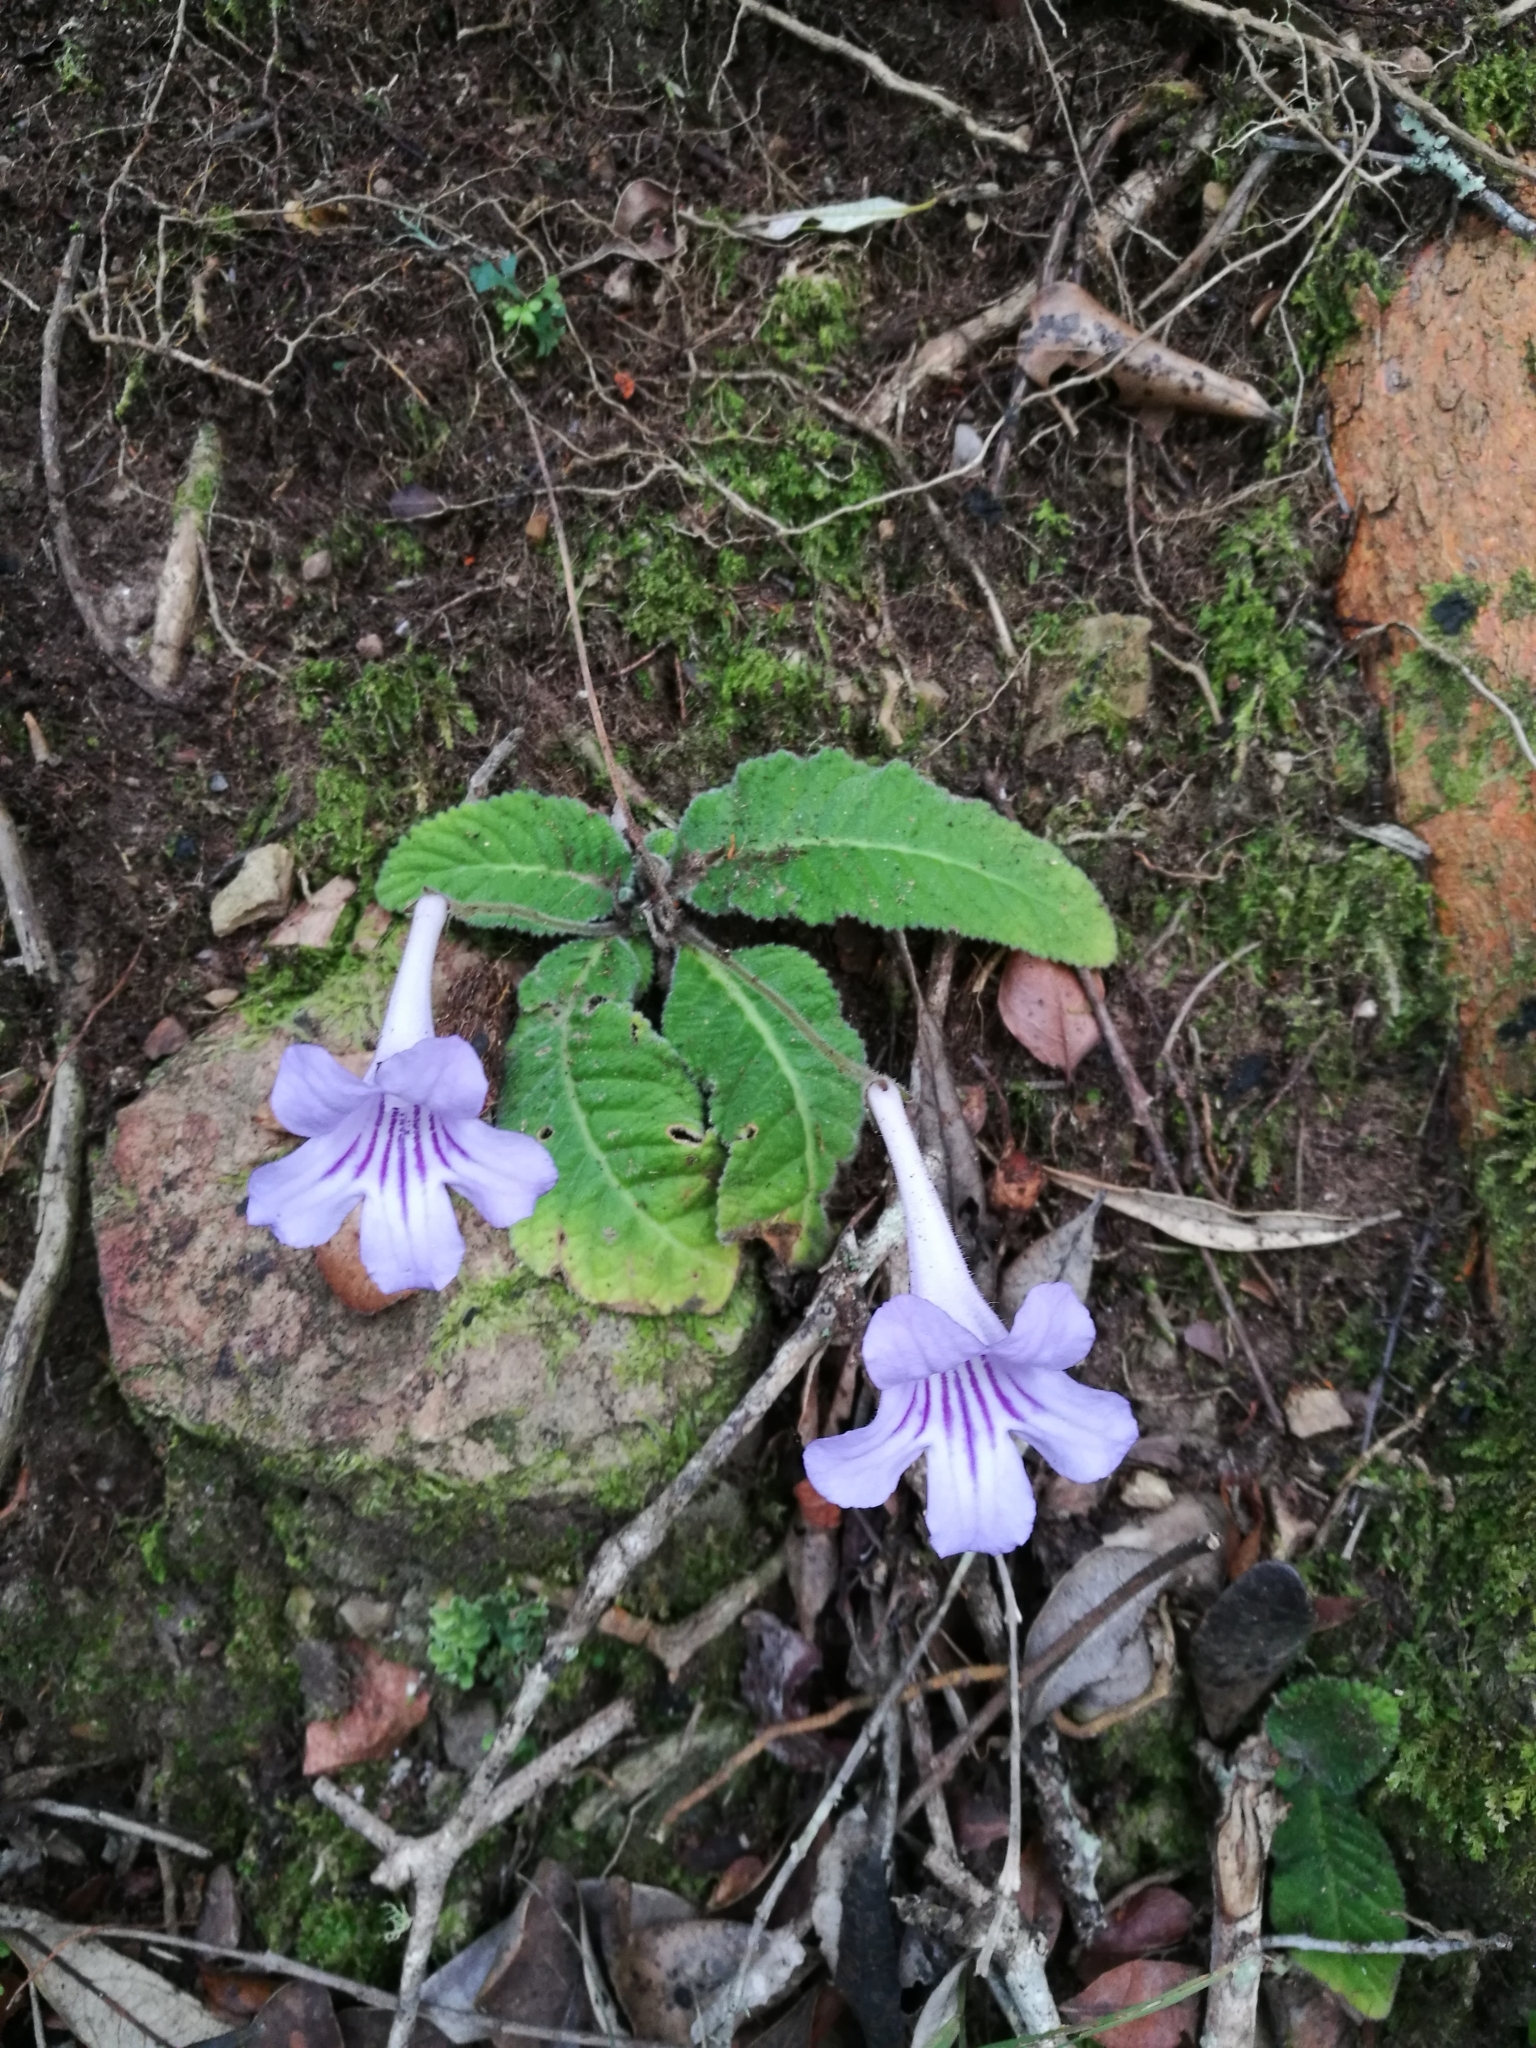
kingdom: Plantae
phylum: Tracheophyta
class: Magnoliopsida
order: Lamiales
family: Gesneriaceae
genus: Streptocarpus
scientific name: Streptocarpus rexii
